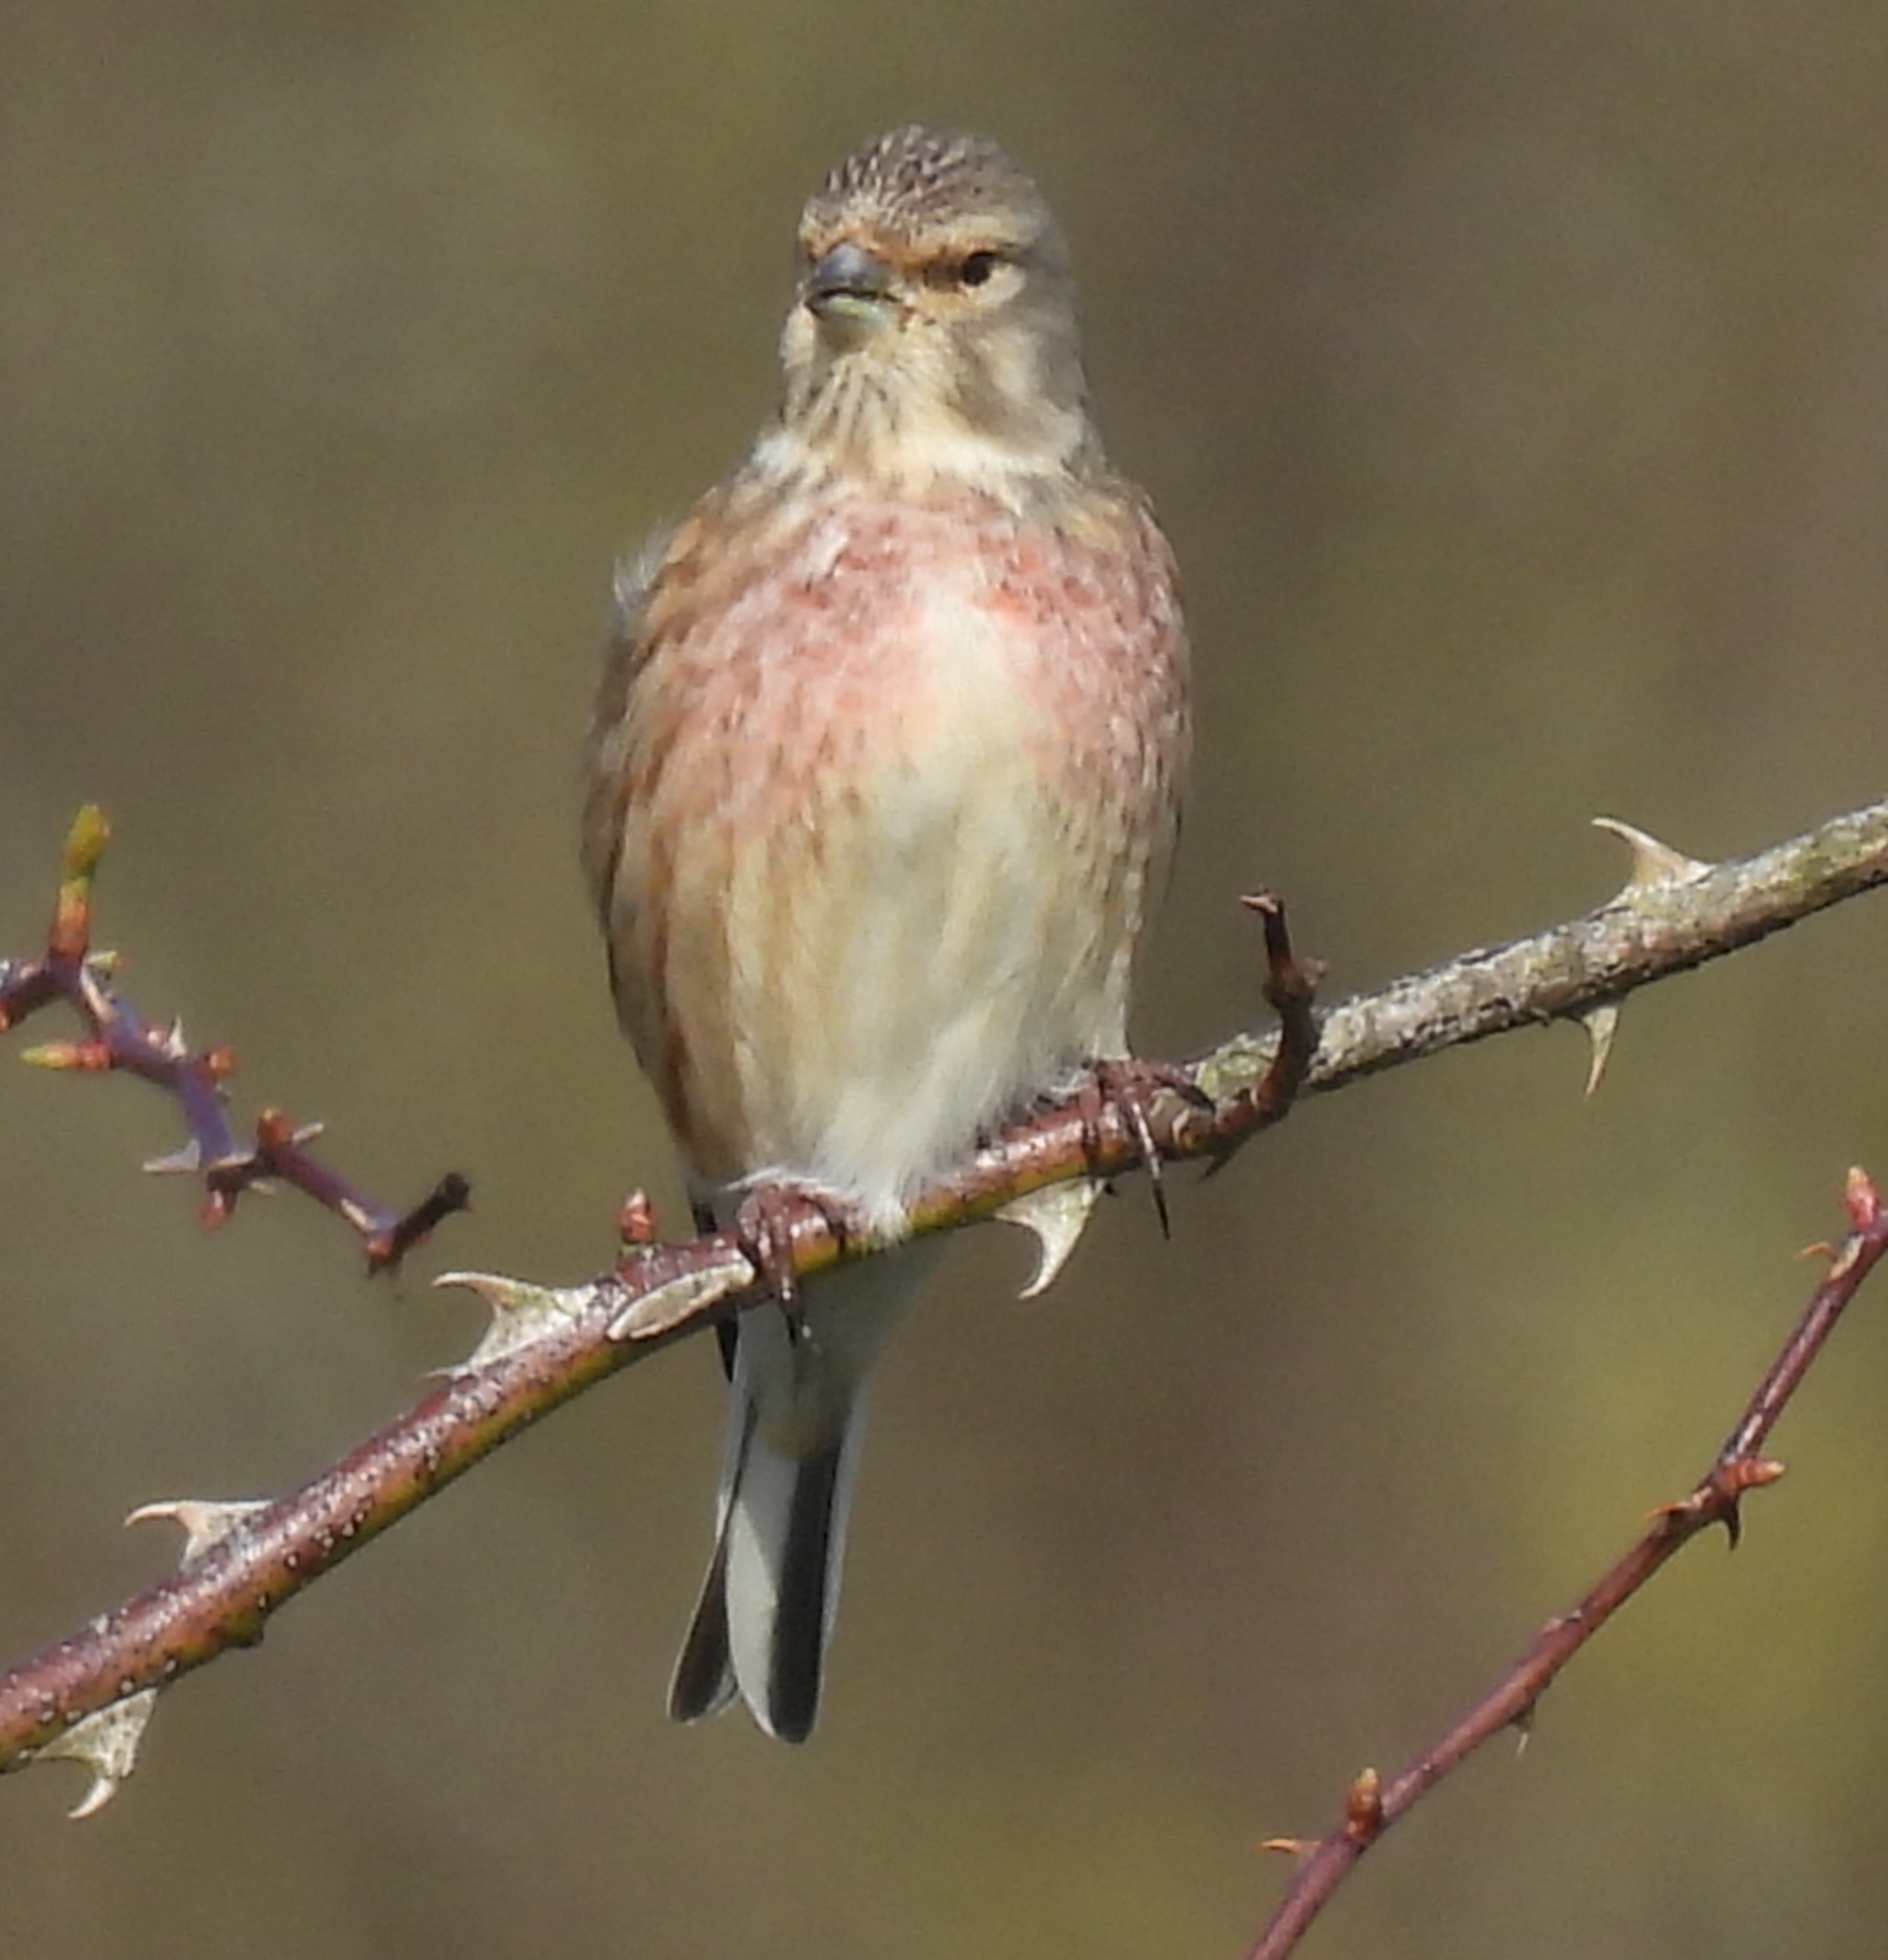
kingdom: Animalia
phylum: Chordata
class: Aves
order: Passeriformes
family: Fringillidae
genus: Linaria
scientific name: Linaria cannabina
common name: Common linnet
